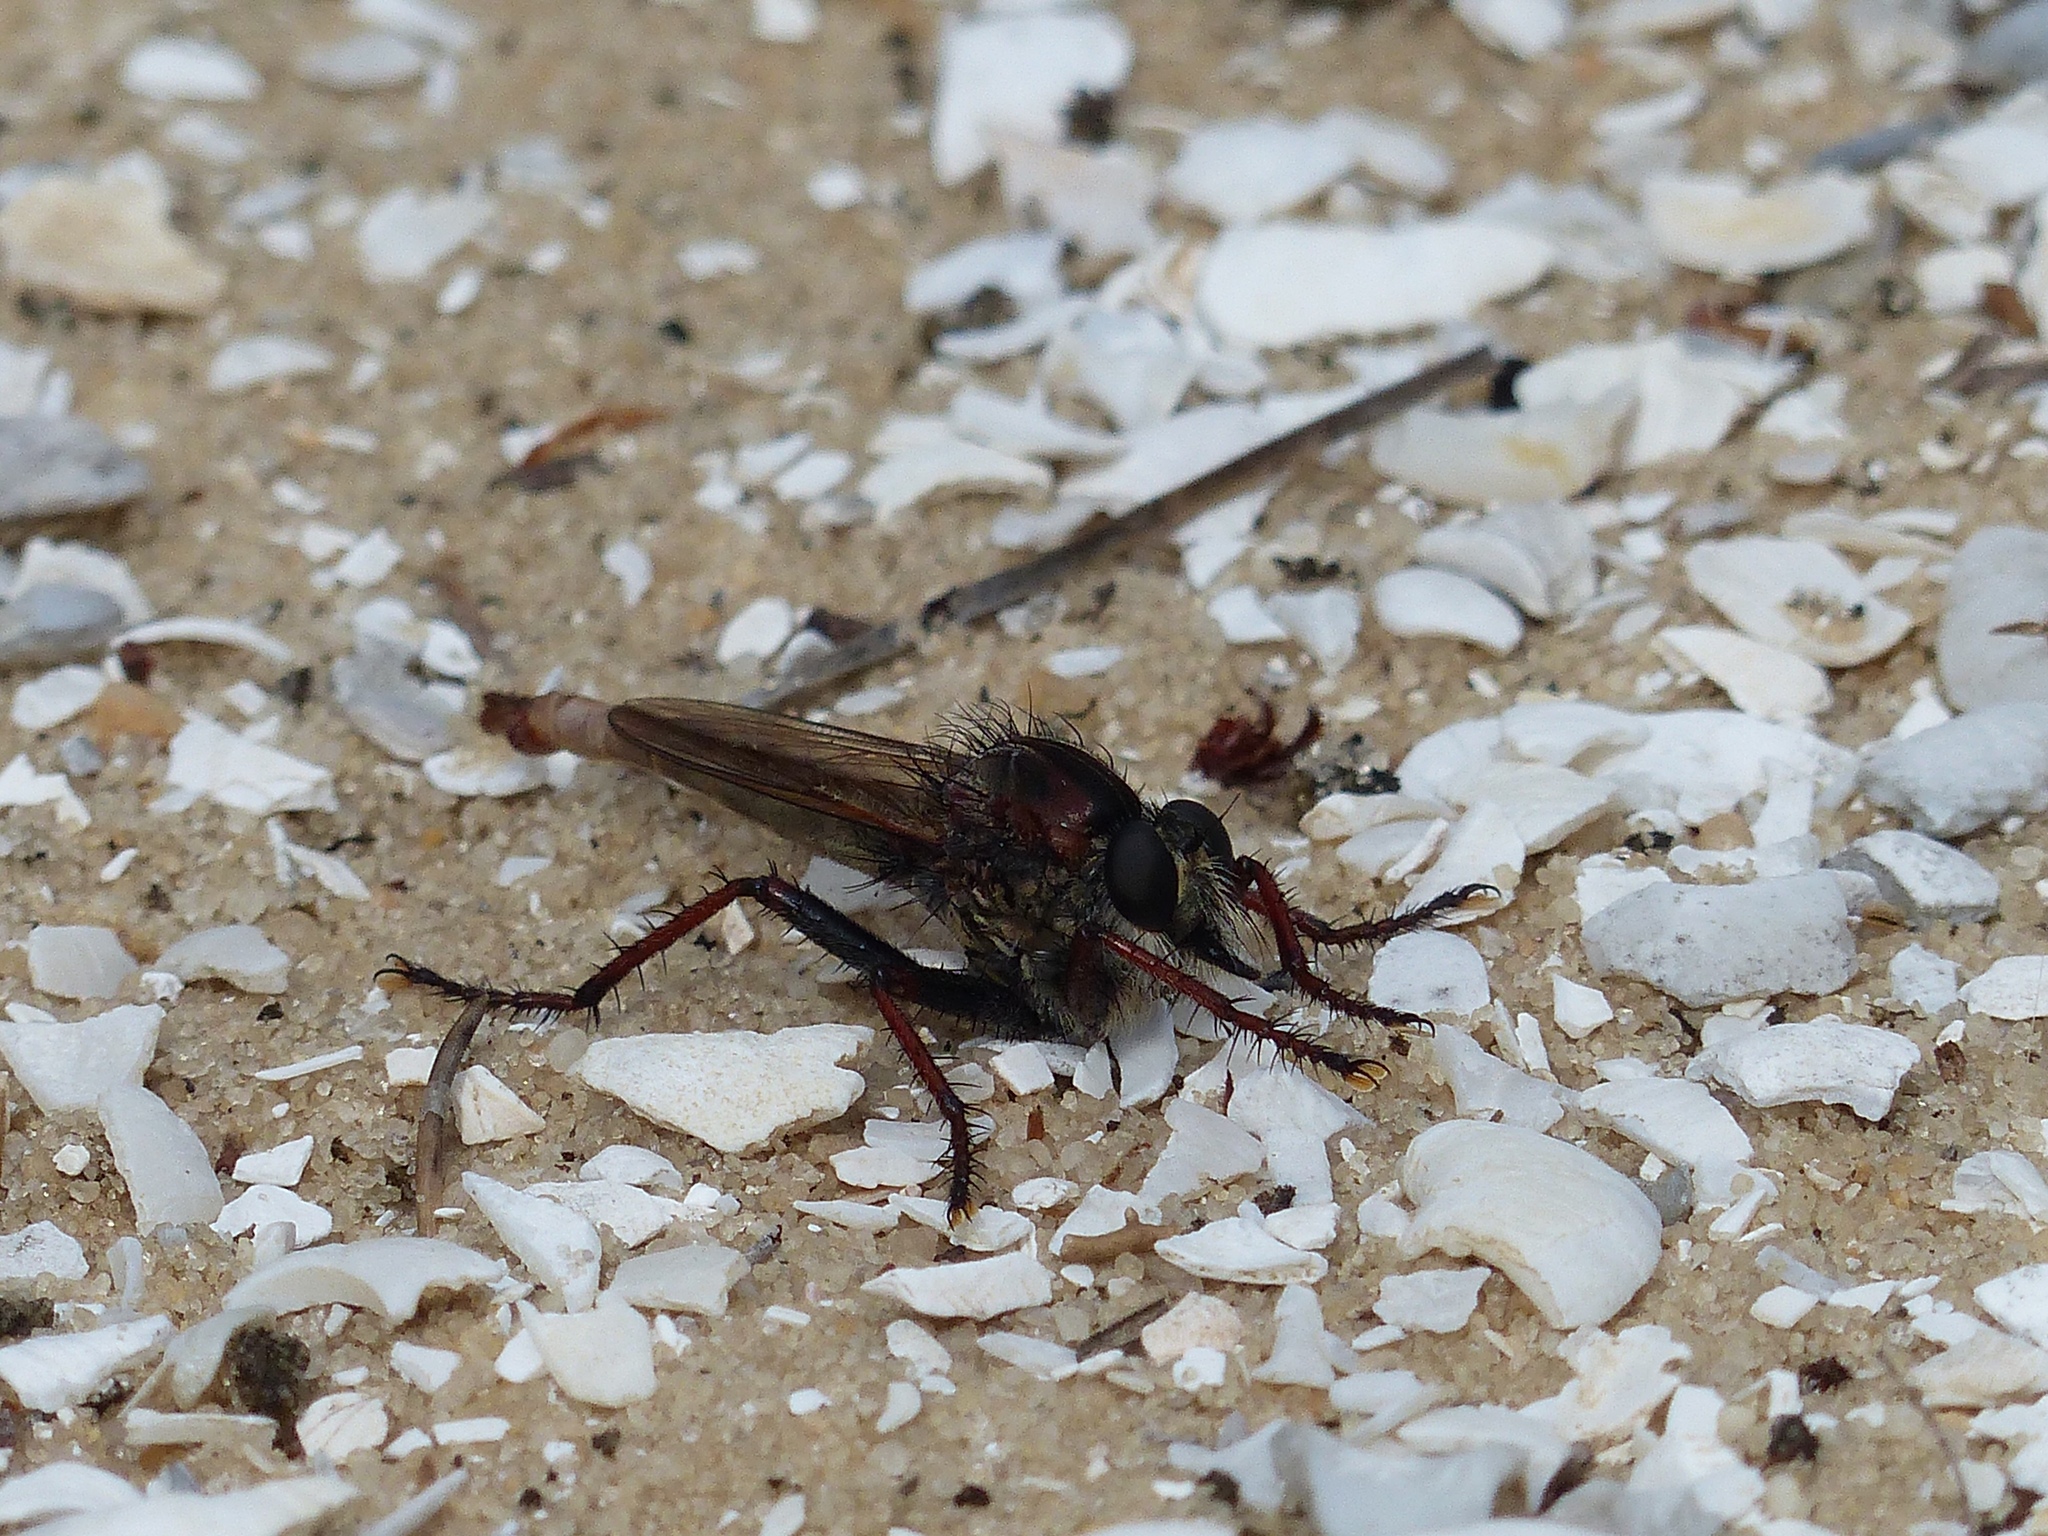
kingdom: Animalia
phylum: Arthropoda
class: Insecta
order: Diptera
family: Asilidae
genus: Proctacanthus
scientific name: Proctacanthus brevipennis
